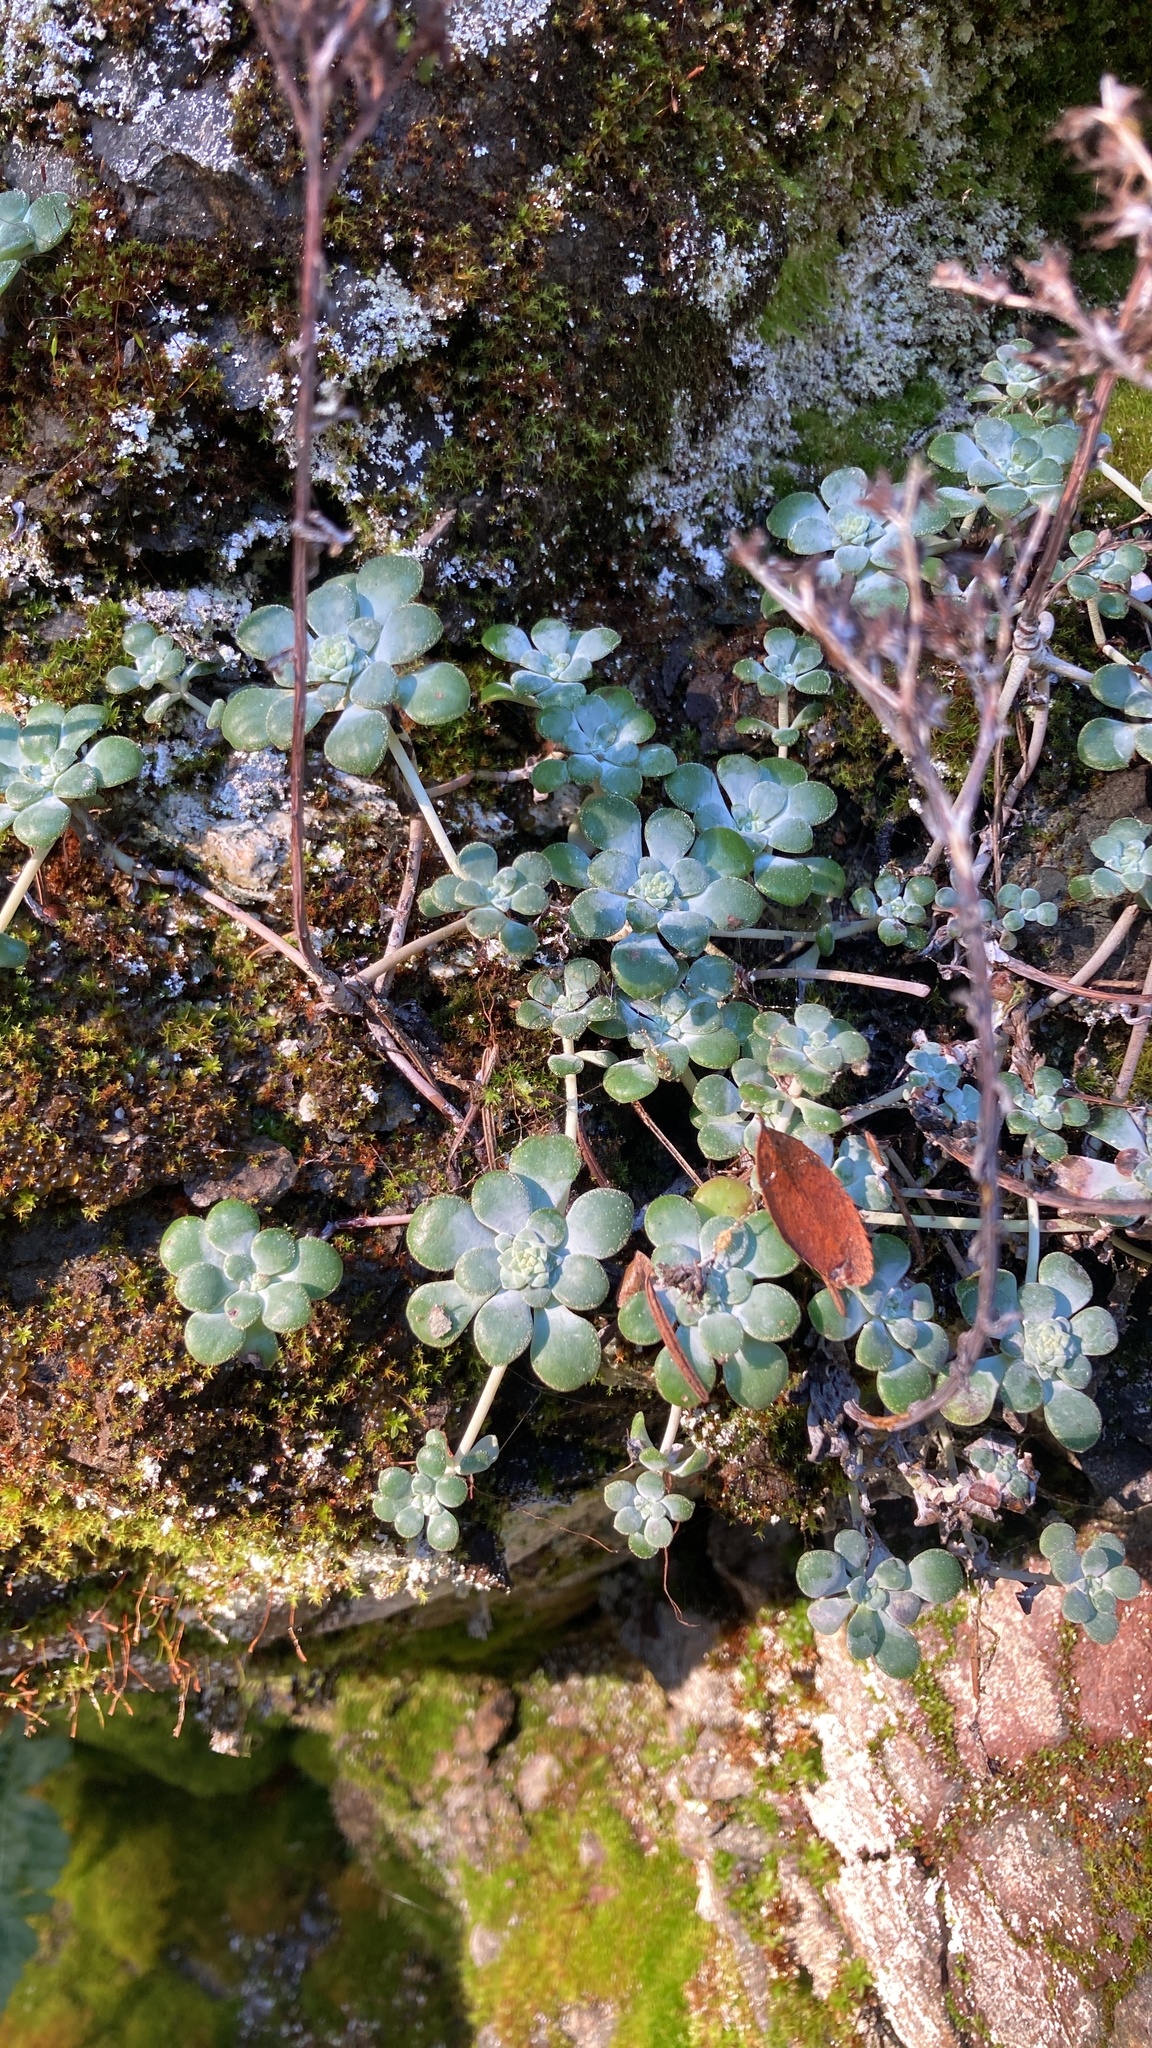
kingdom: Plantae
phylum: Tracheophyta
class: Magnoliopsida
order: Saxifragales
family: Crassulaceae
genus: Sedum
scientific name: Sedum spathulifolium
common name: Colorado stonecrop
